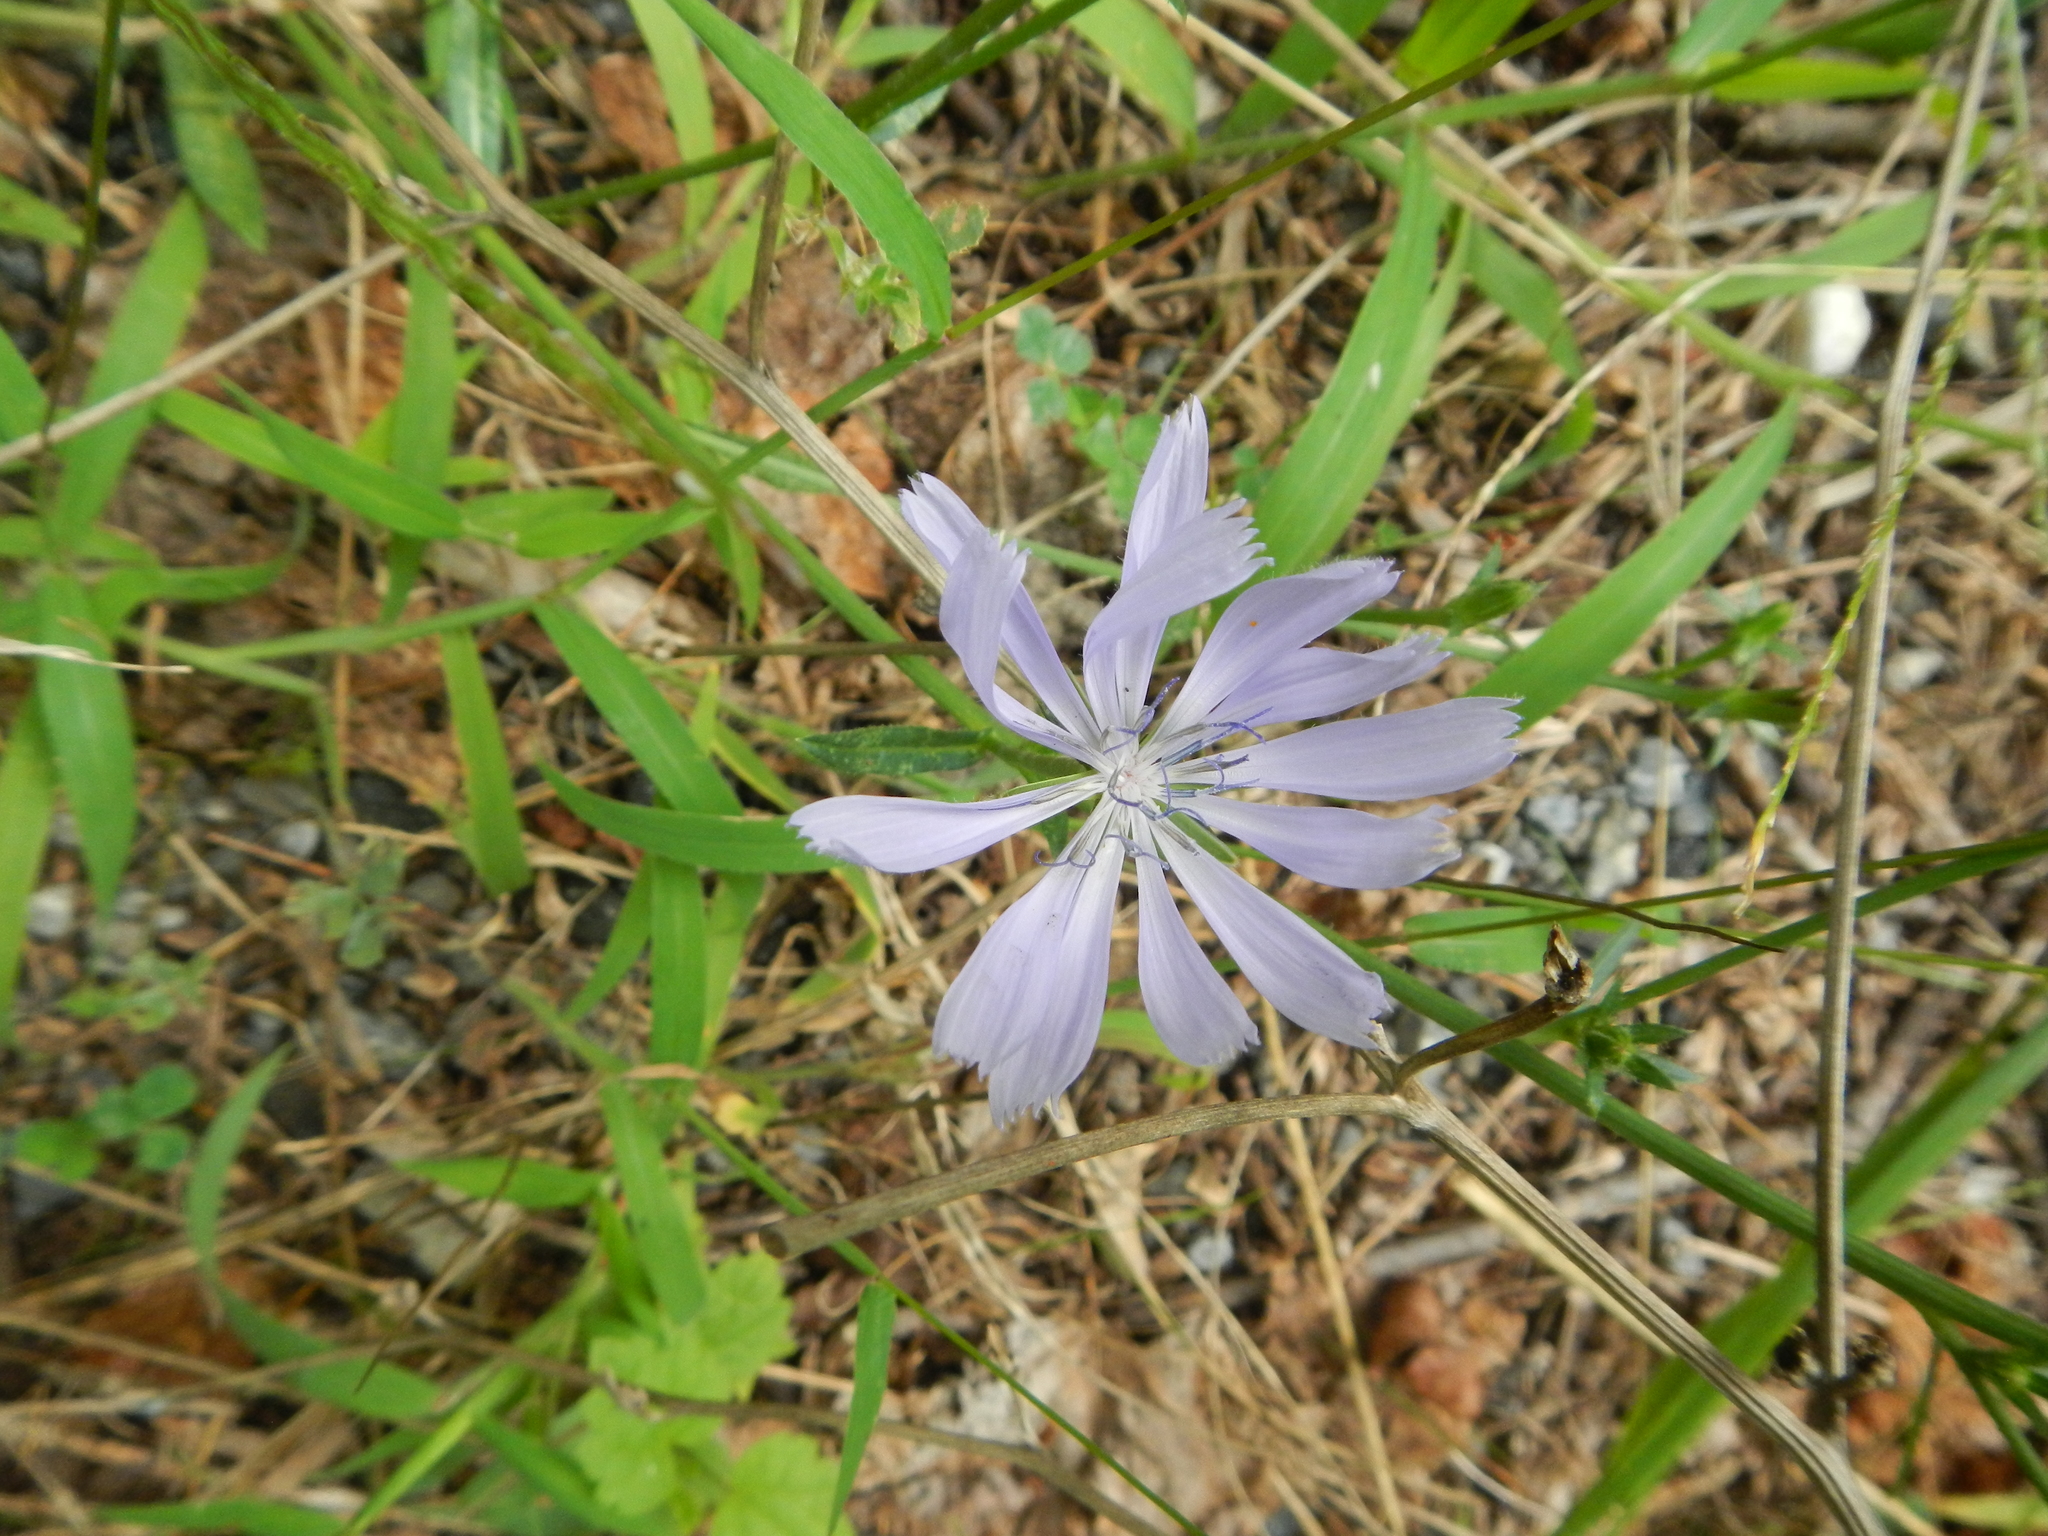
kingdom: Plantae
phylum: Tracheophyta
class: Magnoliopsida
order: Asterales
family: Asteraceae
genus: Cichorium
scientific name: Cichorium intybus
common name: Chicory
